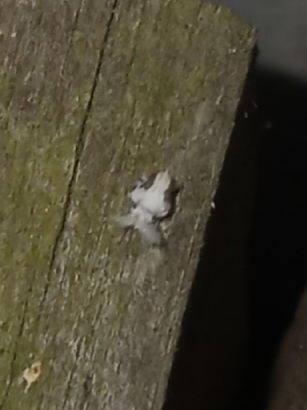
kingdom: Animalia
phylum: Arthropoda
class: Insecta
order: Hemiptera
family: Acanaloniidae
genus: Acanalonia
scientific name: Acanalonia servillei
